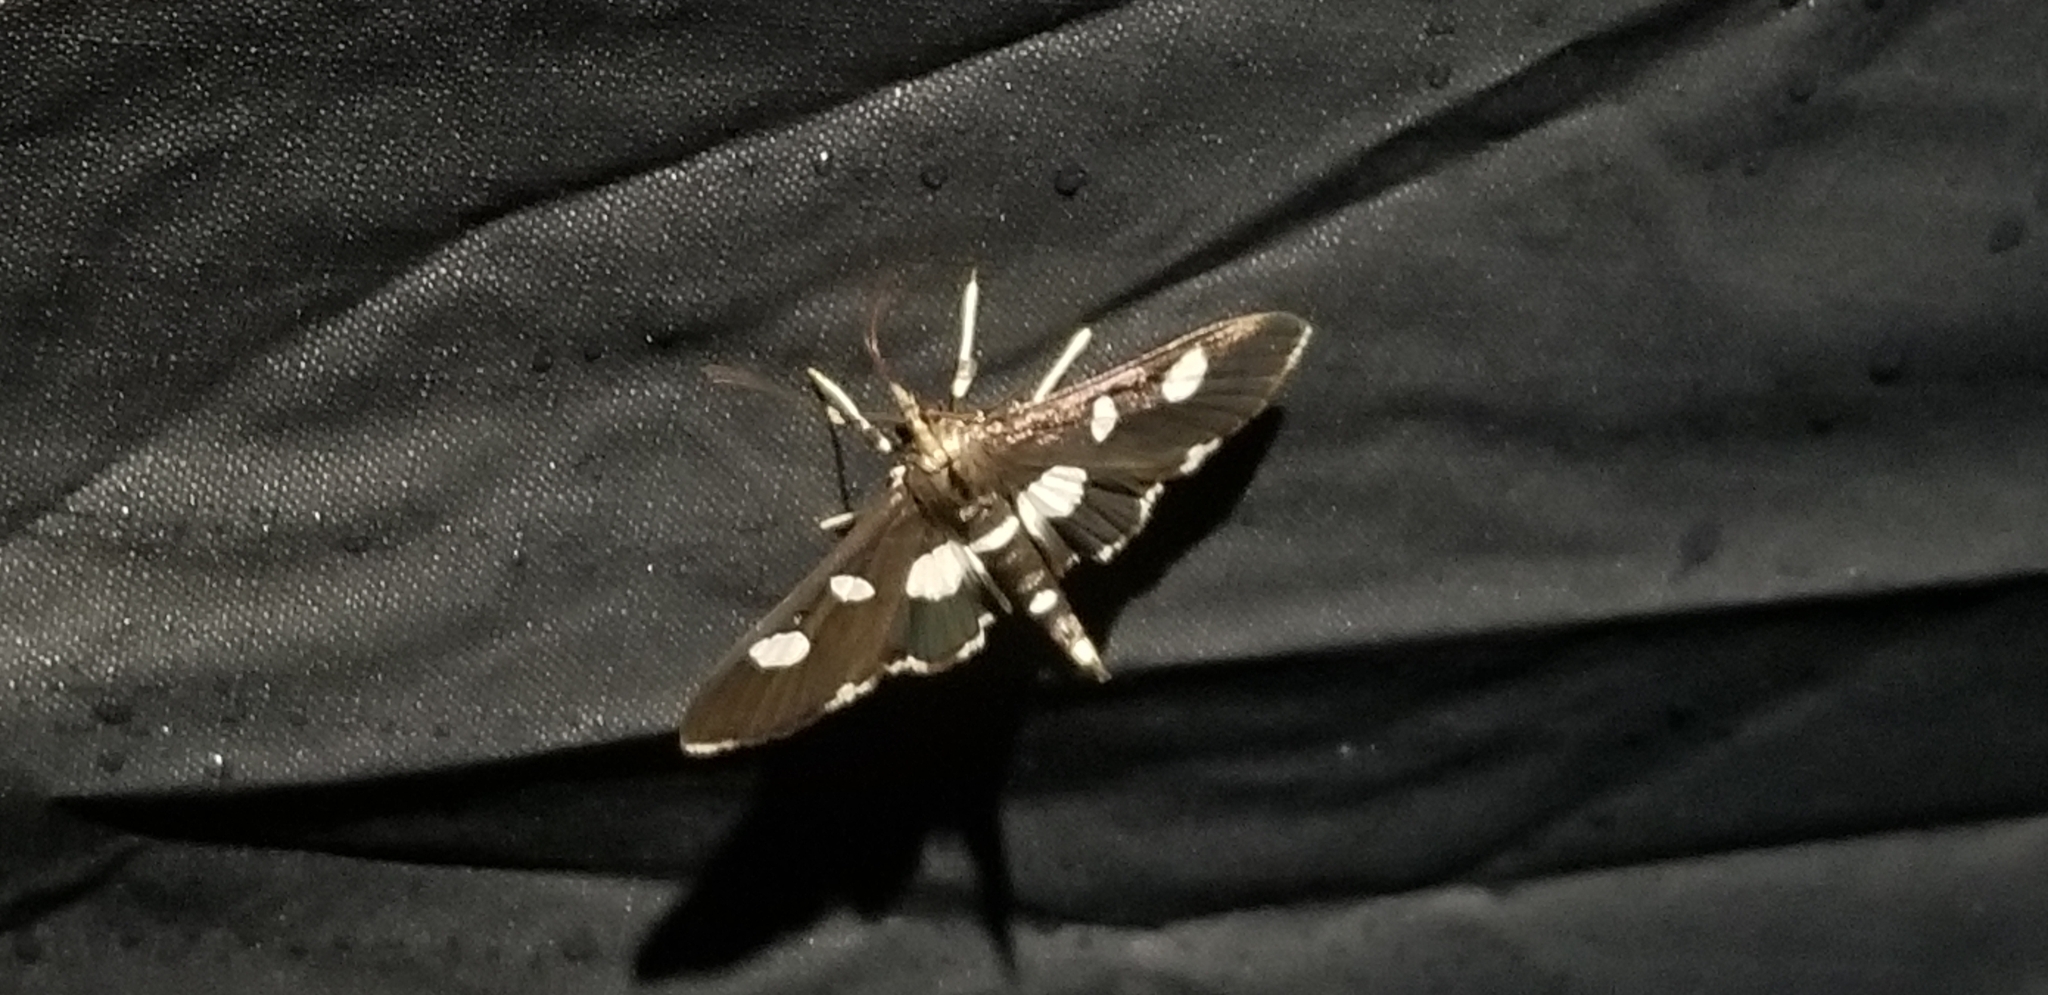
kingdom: Animalia
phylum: Arthropoda
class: Insecta
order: Lepidoptera
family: Crambidae
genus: Desmia
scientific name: Desmia
